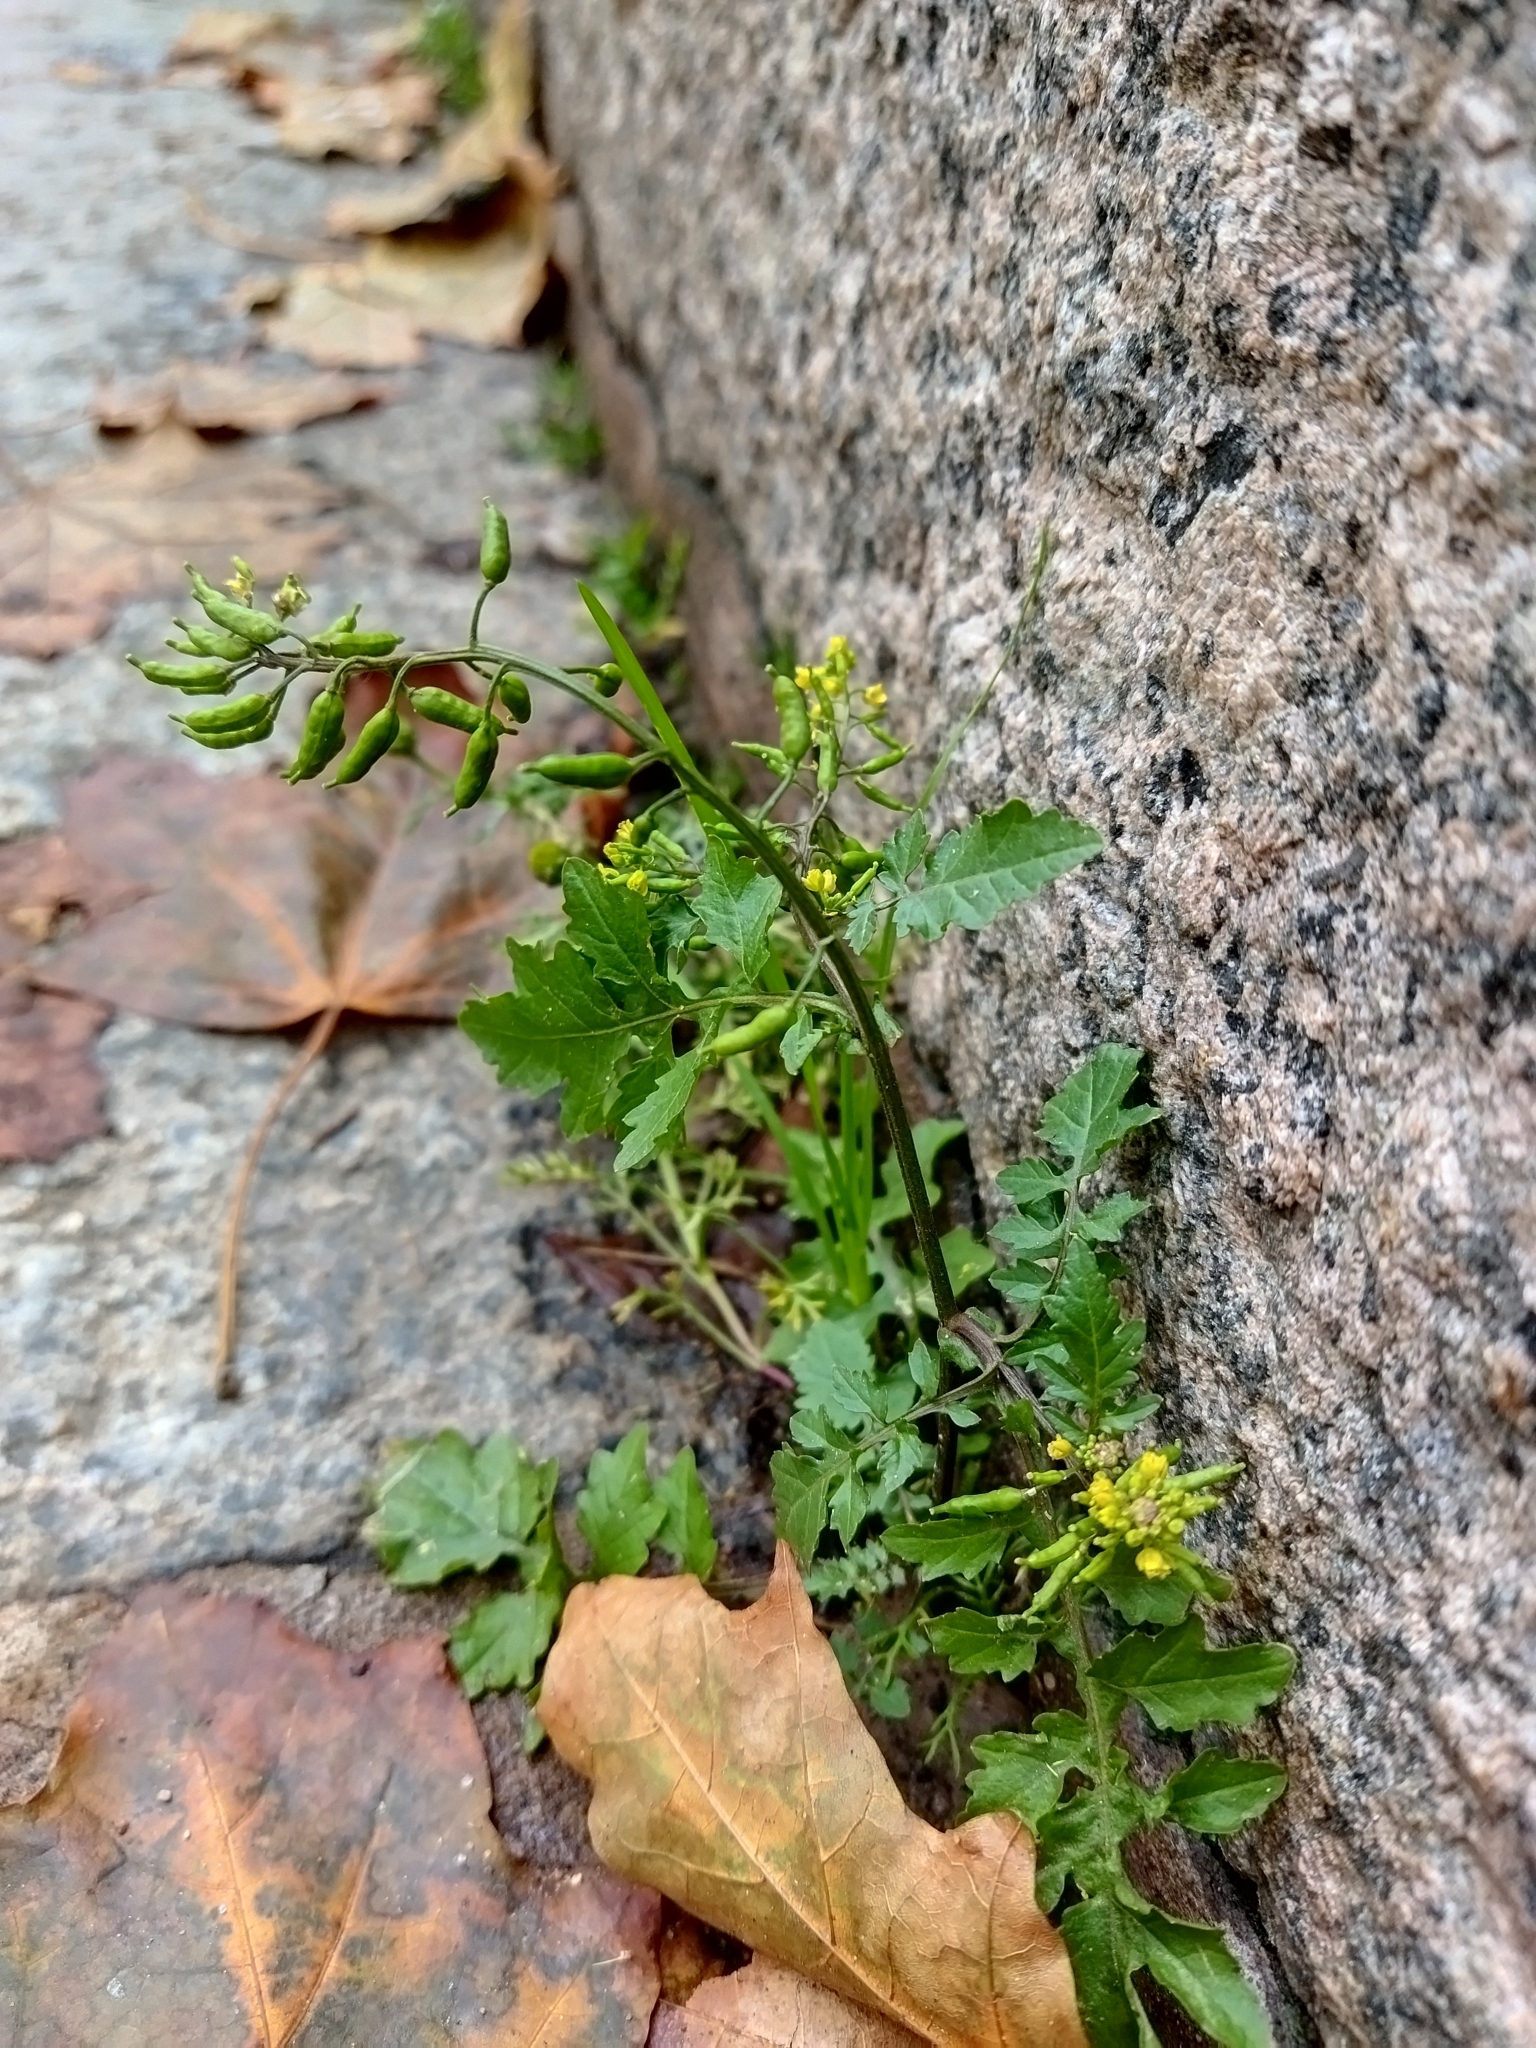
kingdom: Plantae
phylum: Tracheophyta
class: Magnoliopsida
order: Brassicales
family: Brassicaceae
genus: Rorippa
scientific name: Rorippa palustris
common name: Marsh yellow-cress
